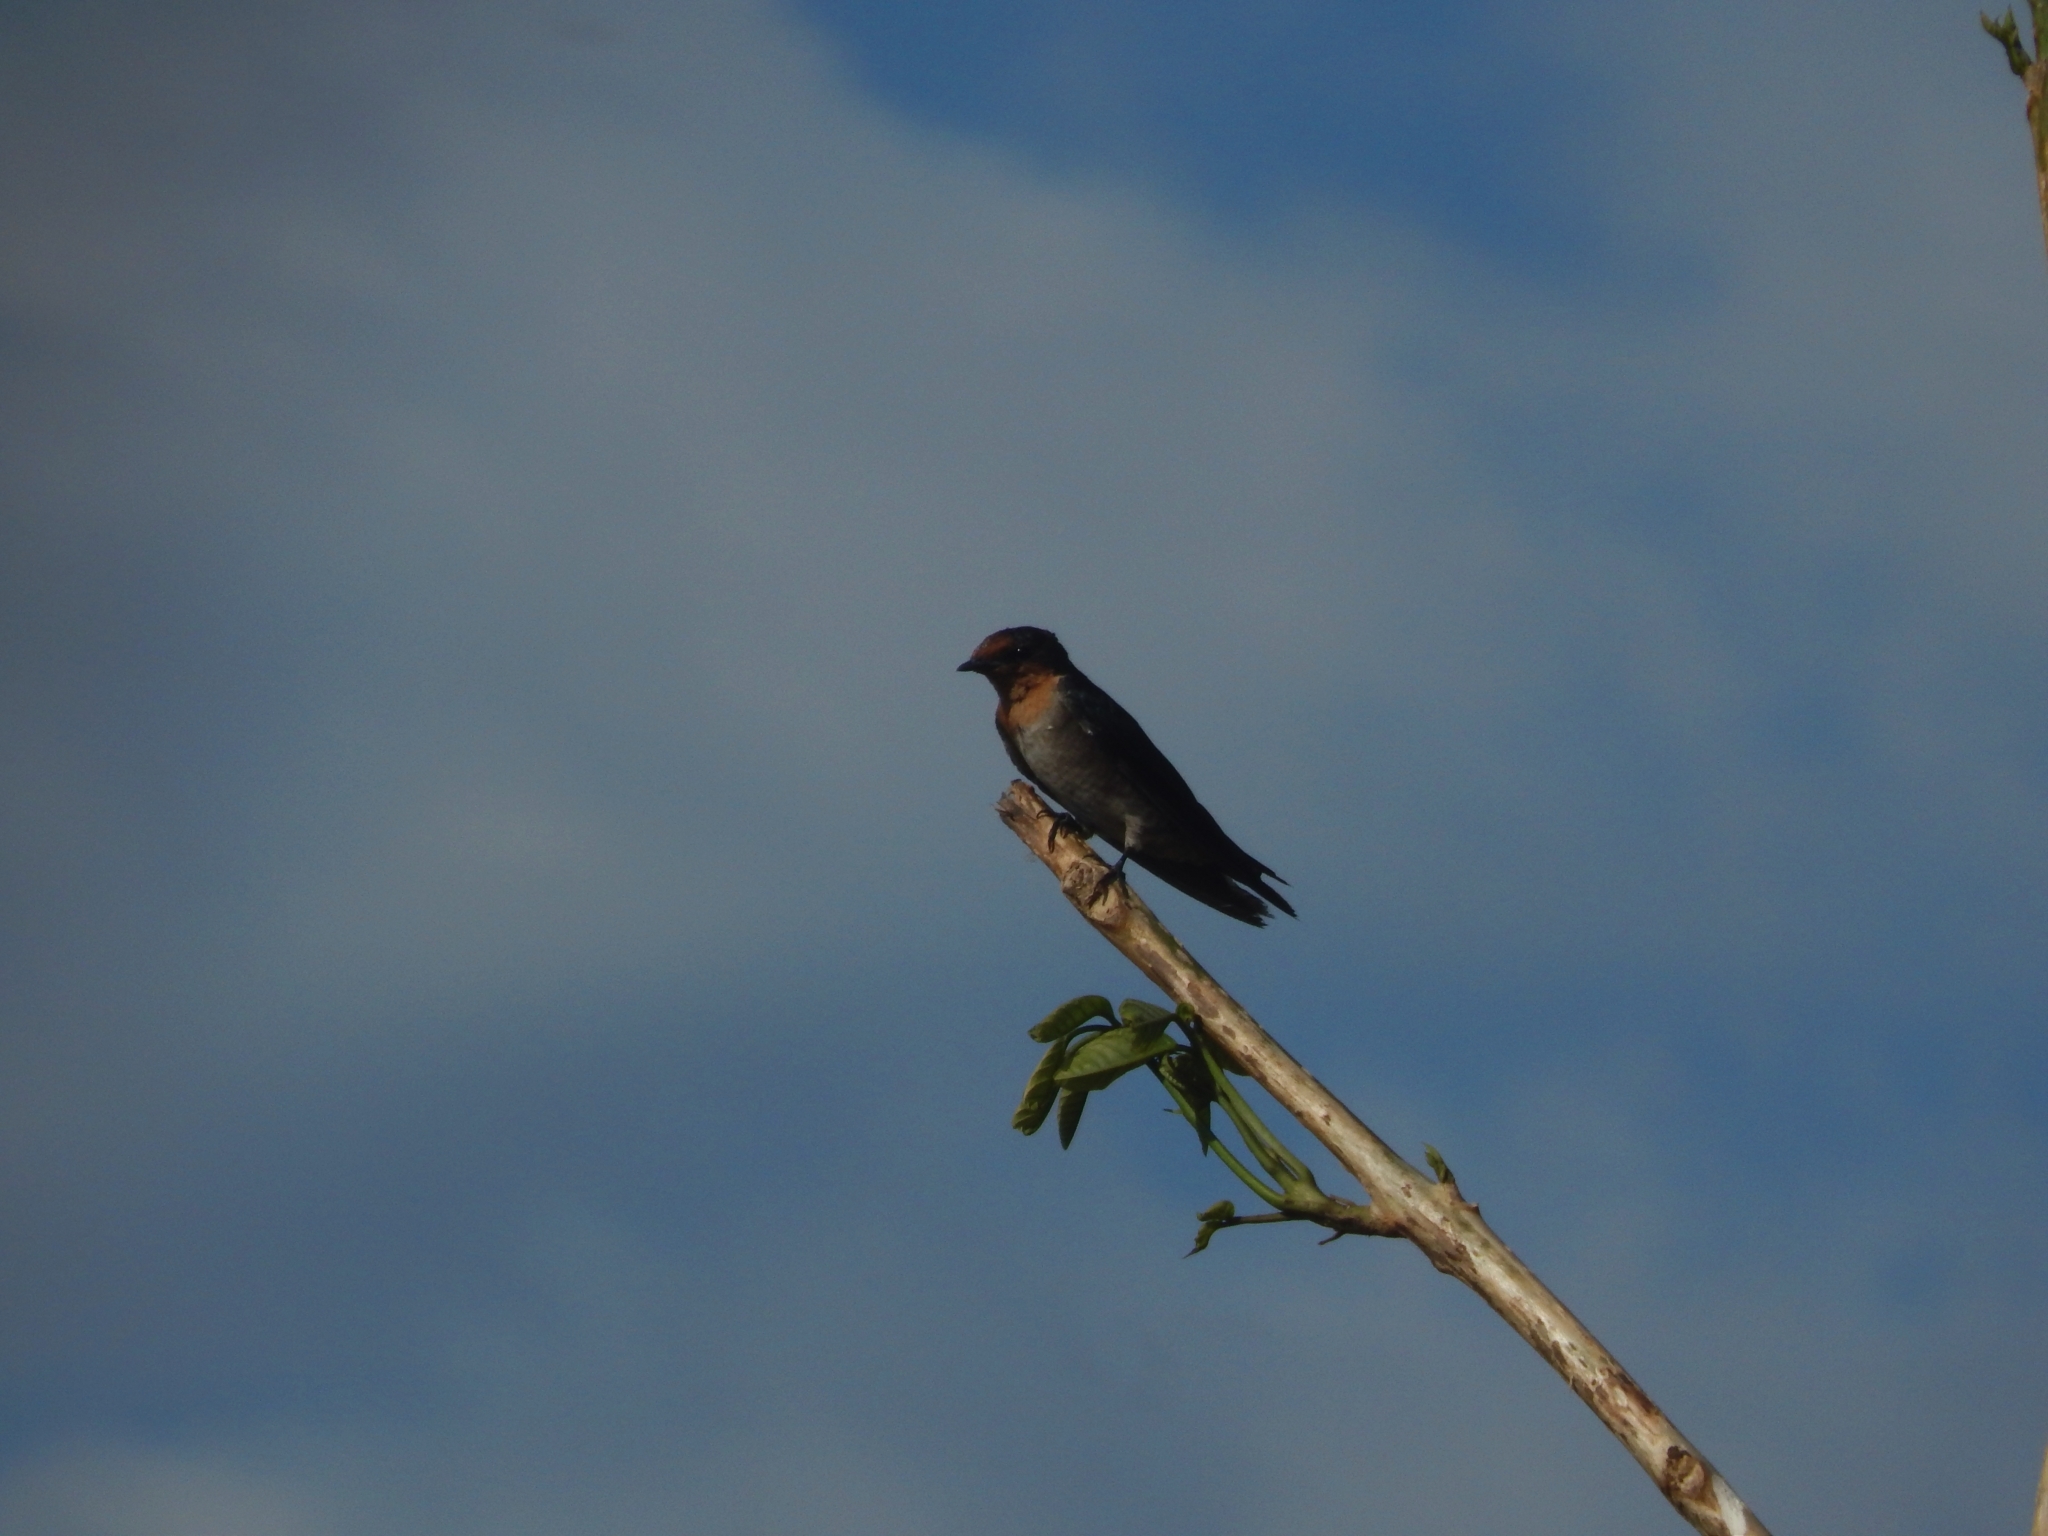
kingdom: Animalia
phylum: Chordata
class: Aves
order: Passeriformes
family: Hirundinidae
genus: Hirundo
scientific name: Hirundo tahitica
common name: Pacific swallow
